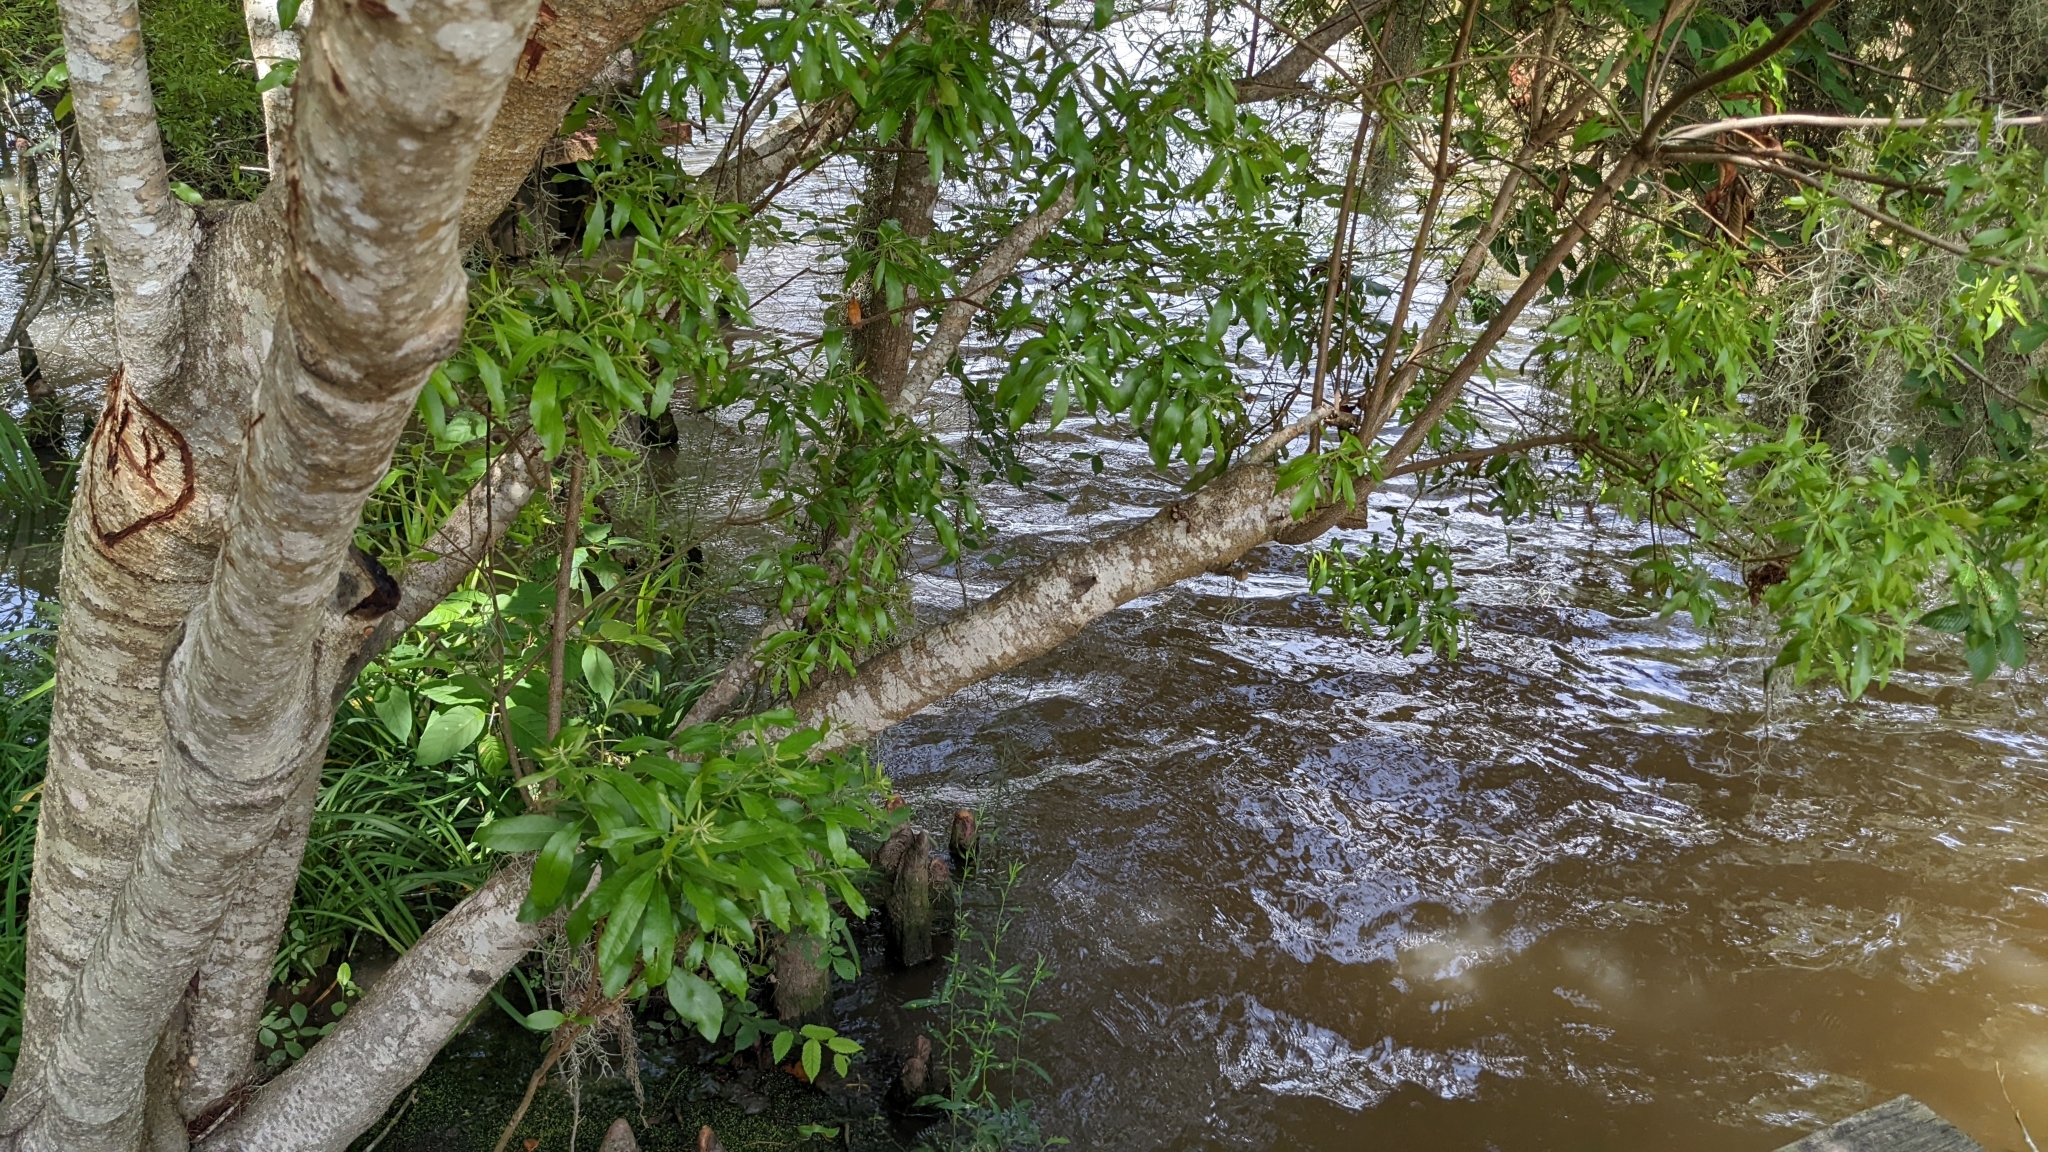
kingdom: Plantae
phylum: Tracheophyta
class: Magnoliopsida
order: Fagales
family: Myricaceae
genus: Morella
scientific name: Morella cerifera
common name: Wax myrtle
